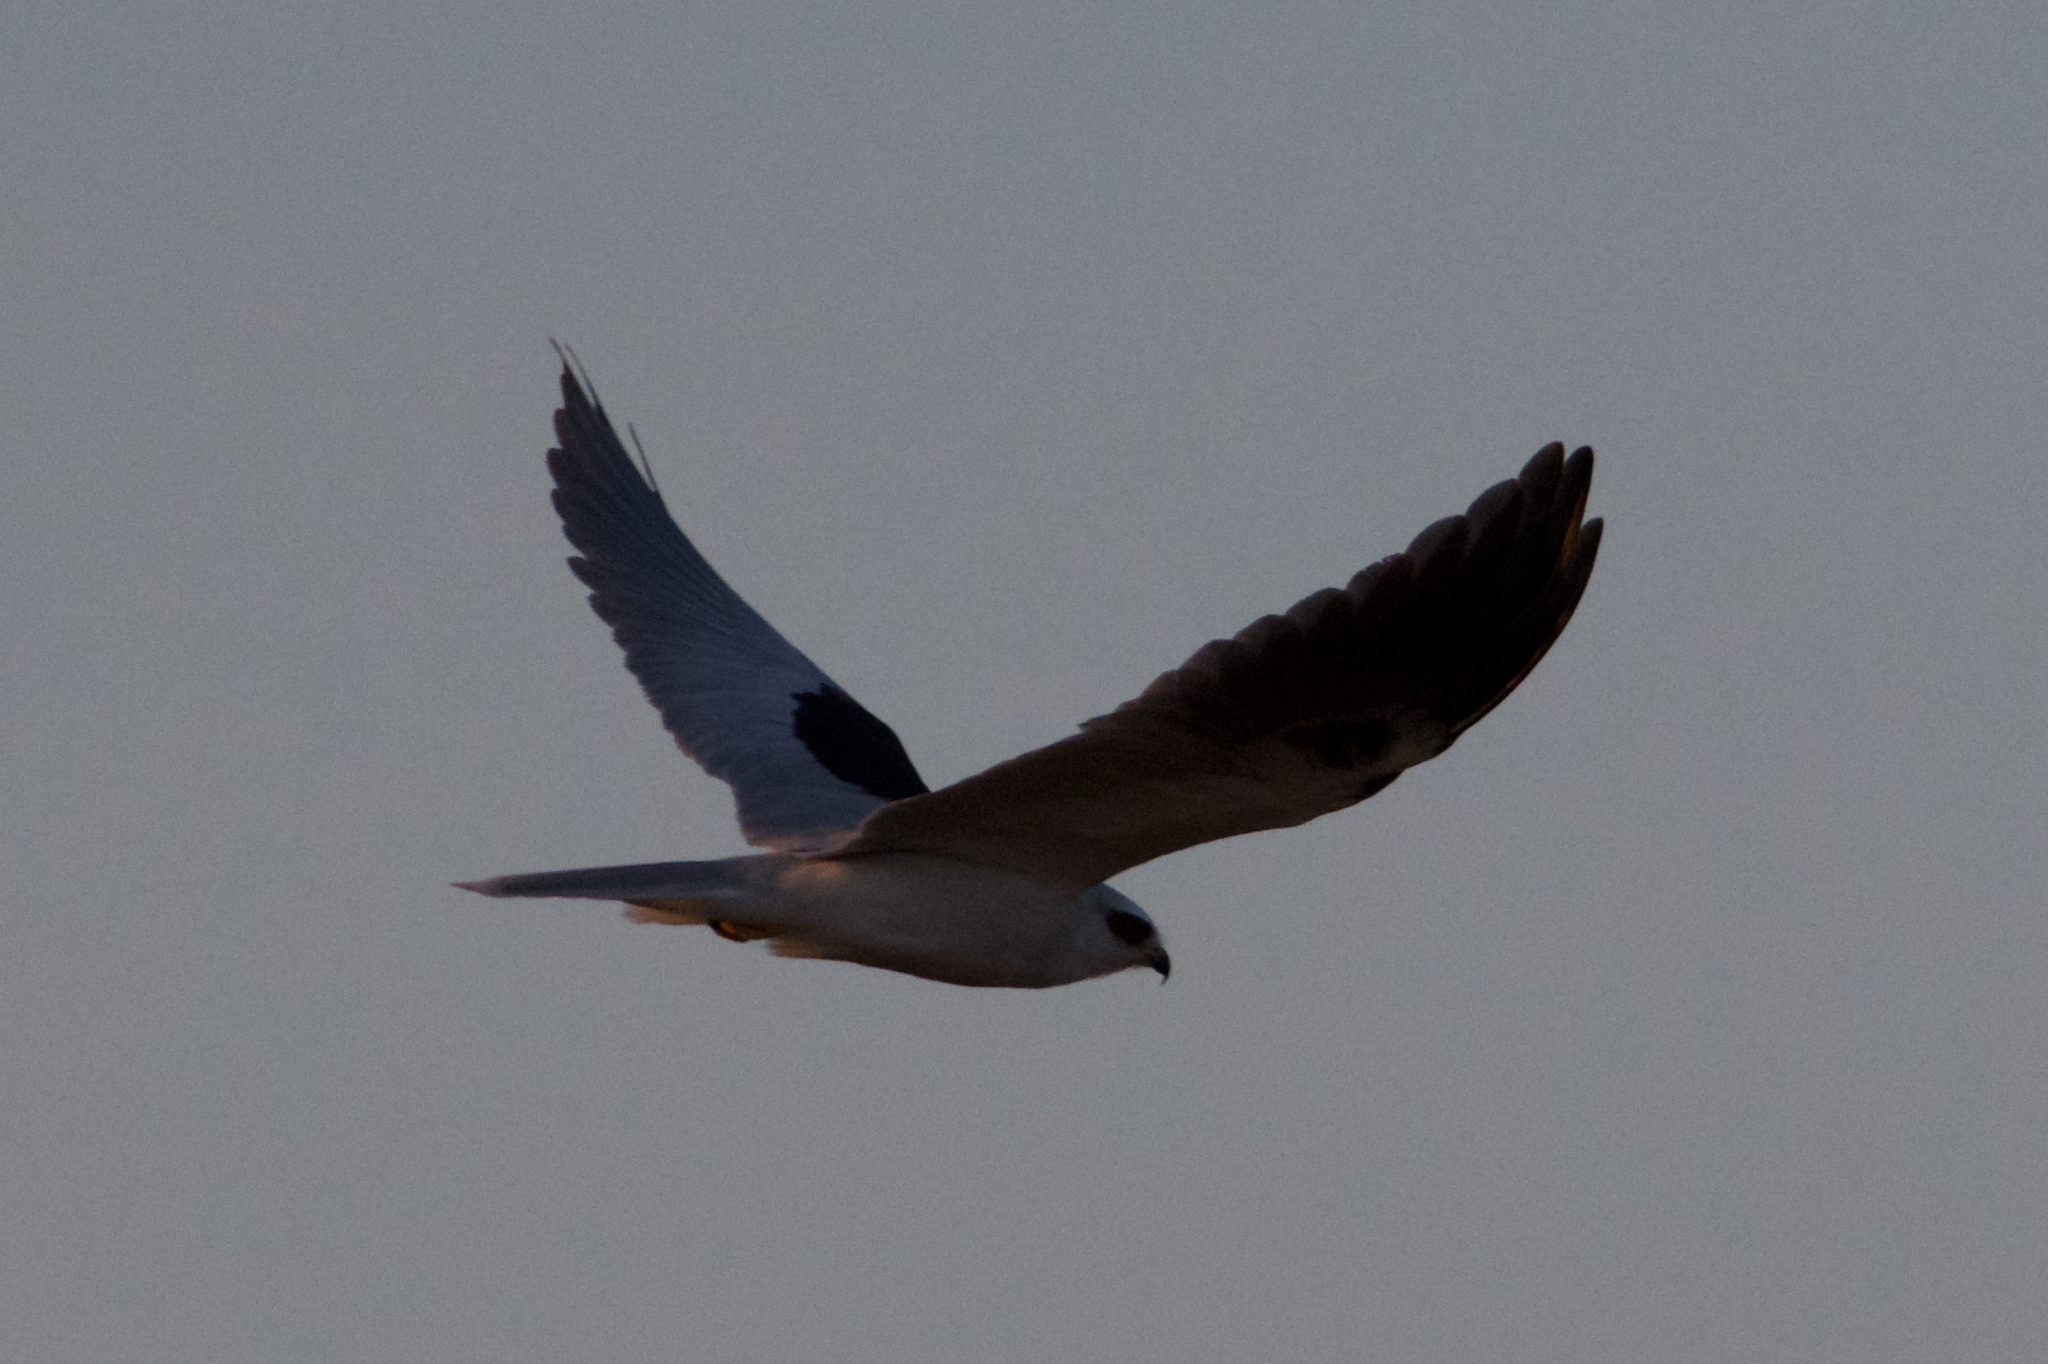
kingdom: Animalia
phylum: Chordata
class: Aves
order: Accipitriformes
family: Accipitridae
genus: Elanus
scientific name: Elanus leucurus
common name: White-tailed kite
